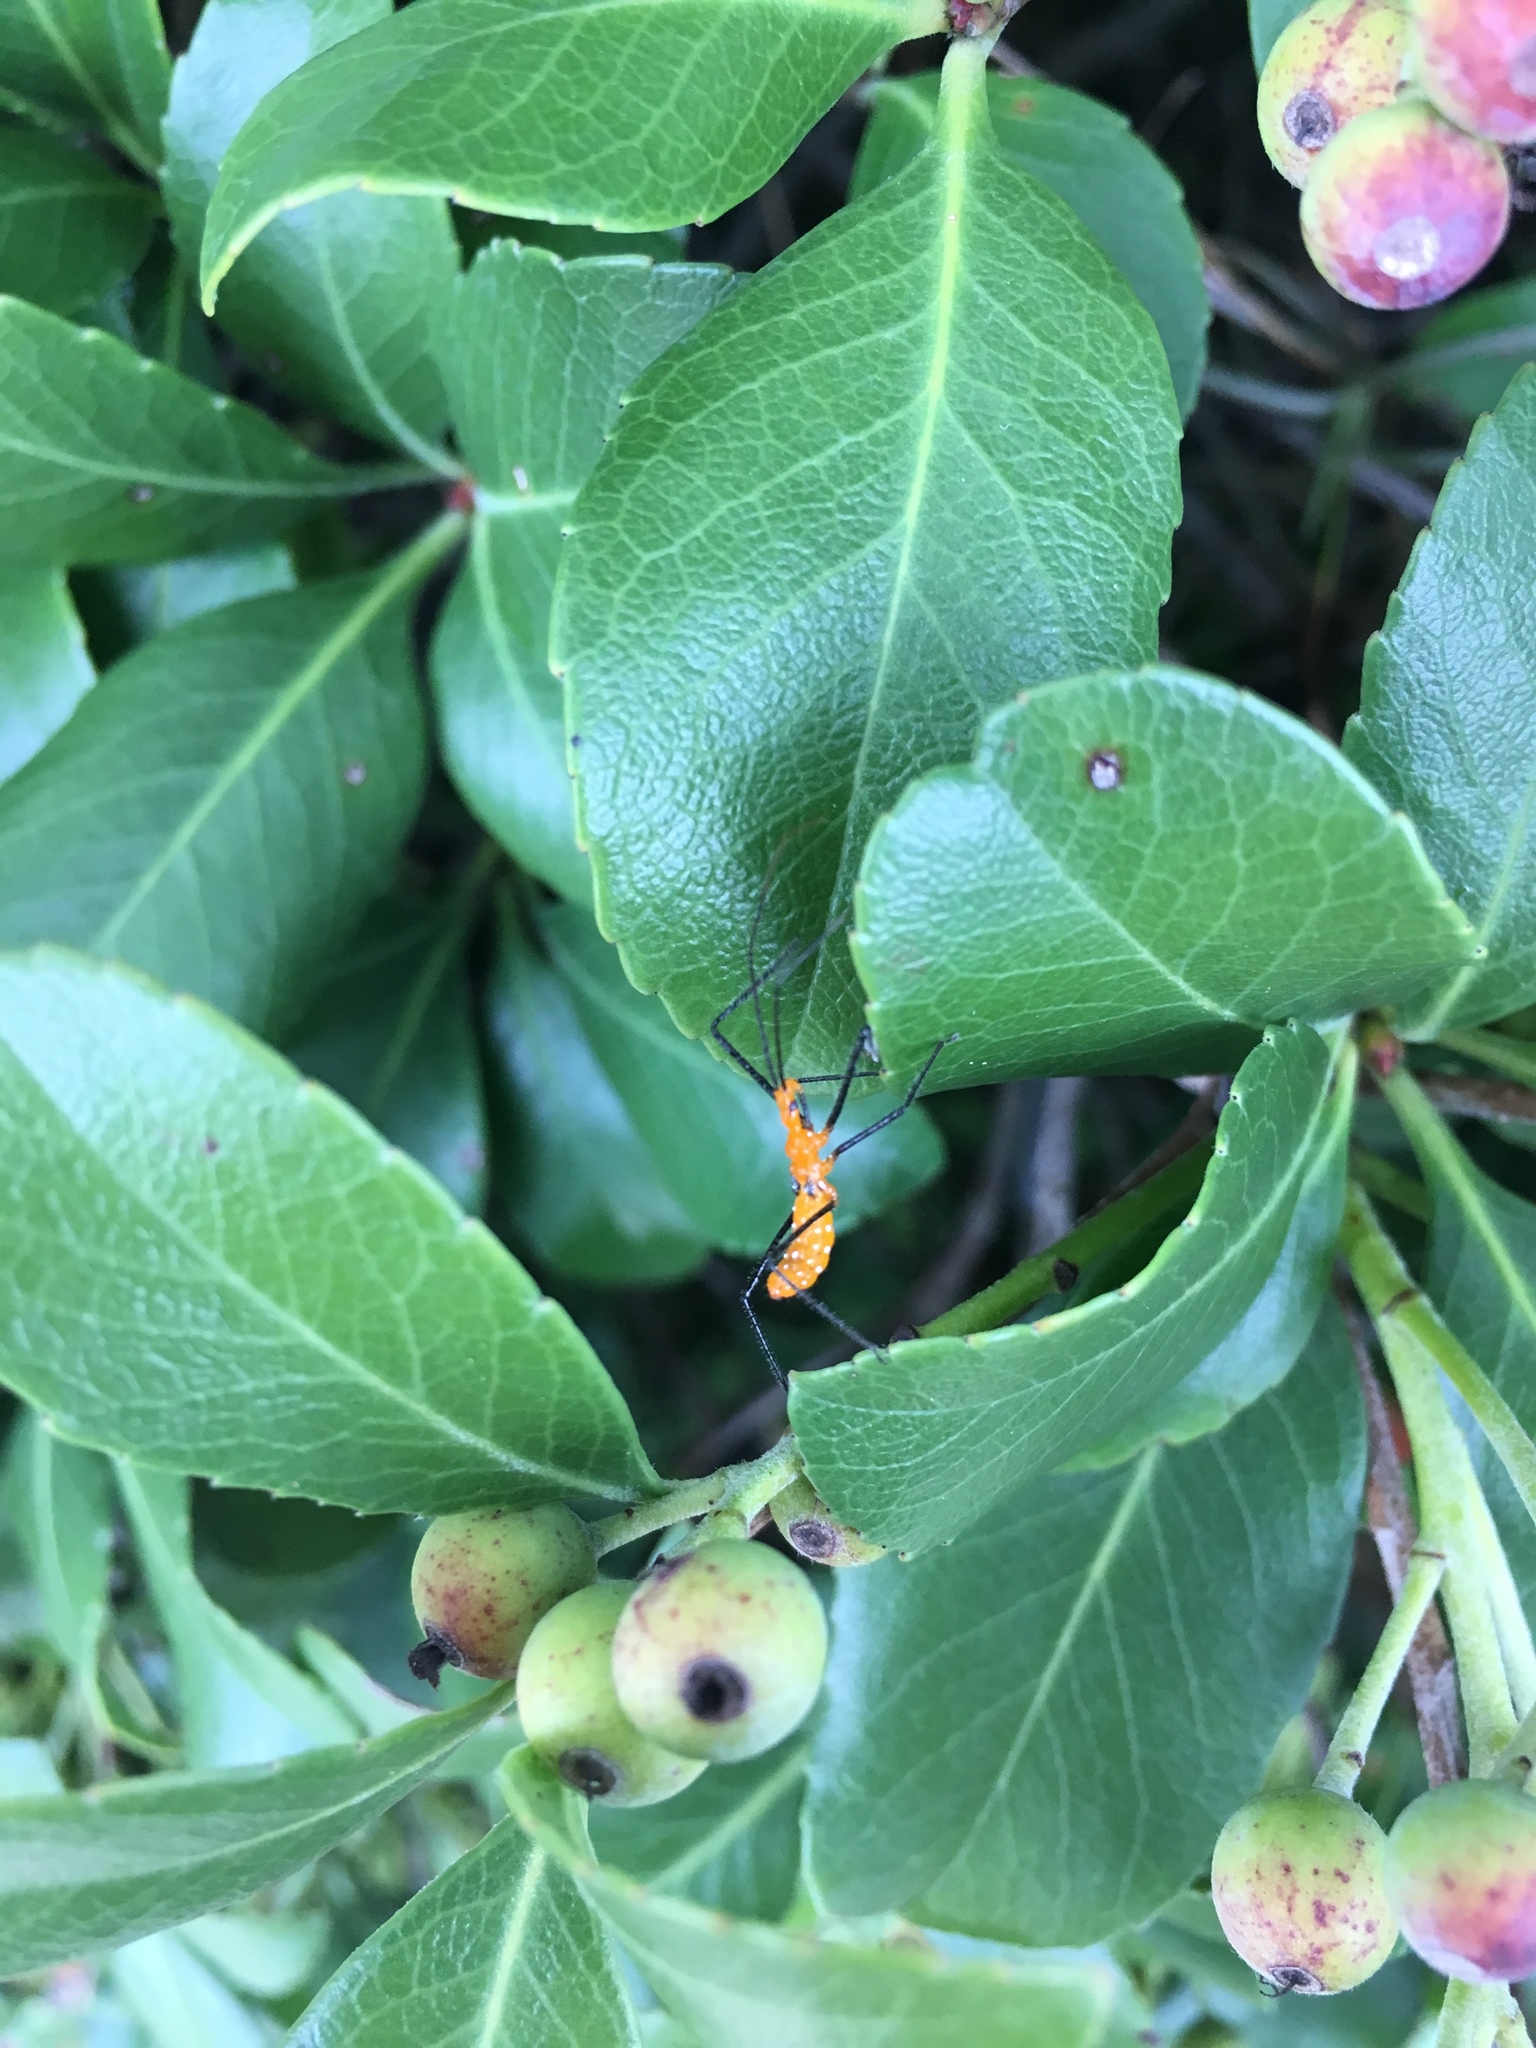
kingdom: Animalia
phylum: Arthropoda
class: Insecta
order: Hemiptera
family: Reduviidae
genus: Zelus
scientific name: Zelus longipes
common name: Milkweed assassin bug
